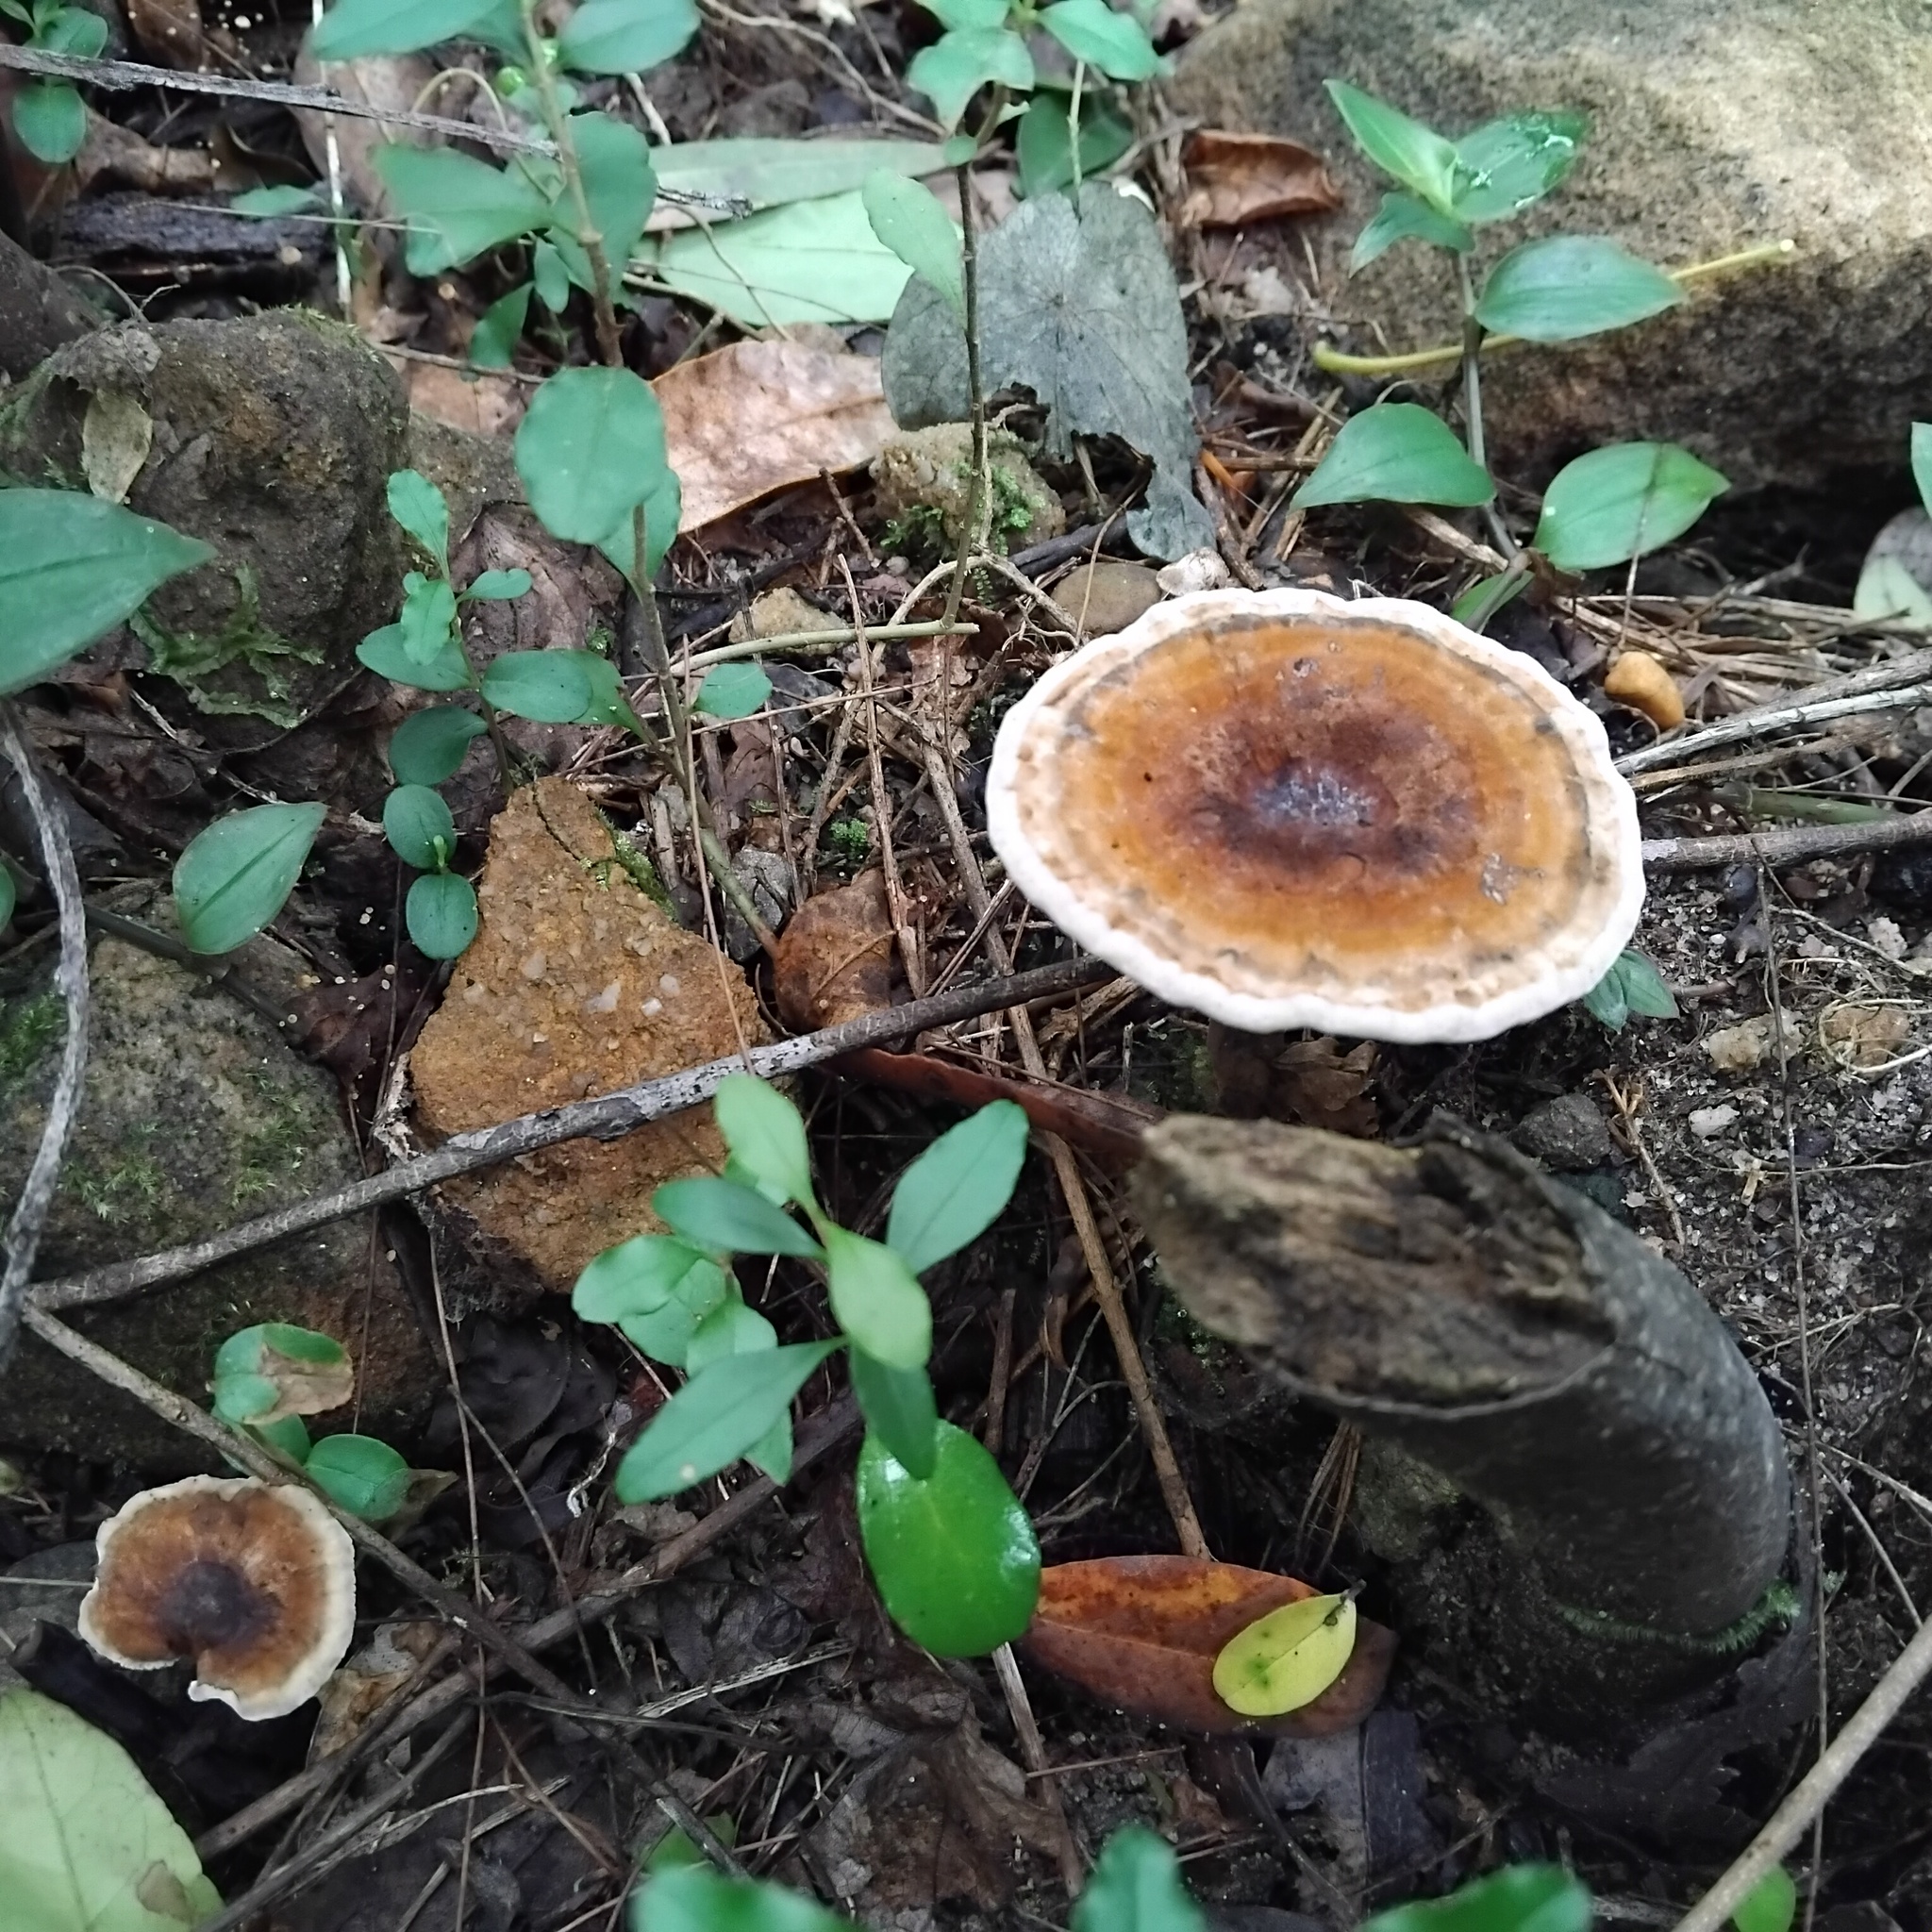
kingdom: Fungi
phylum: Basidiomycota
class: Agaricomycetes
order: Polyporales
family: Ganodermataceae
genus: Sanguinoderma
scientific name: Sanguinoderma rude
